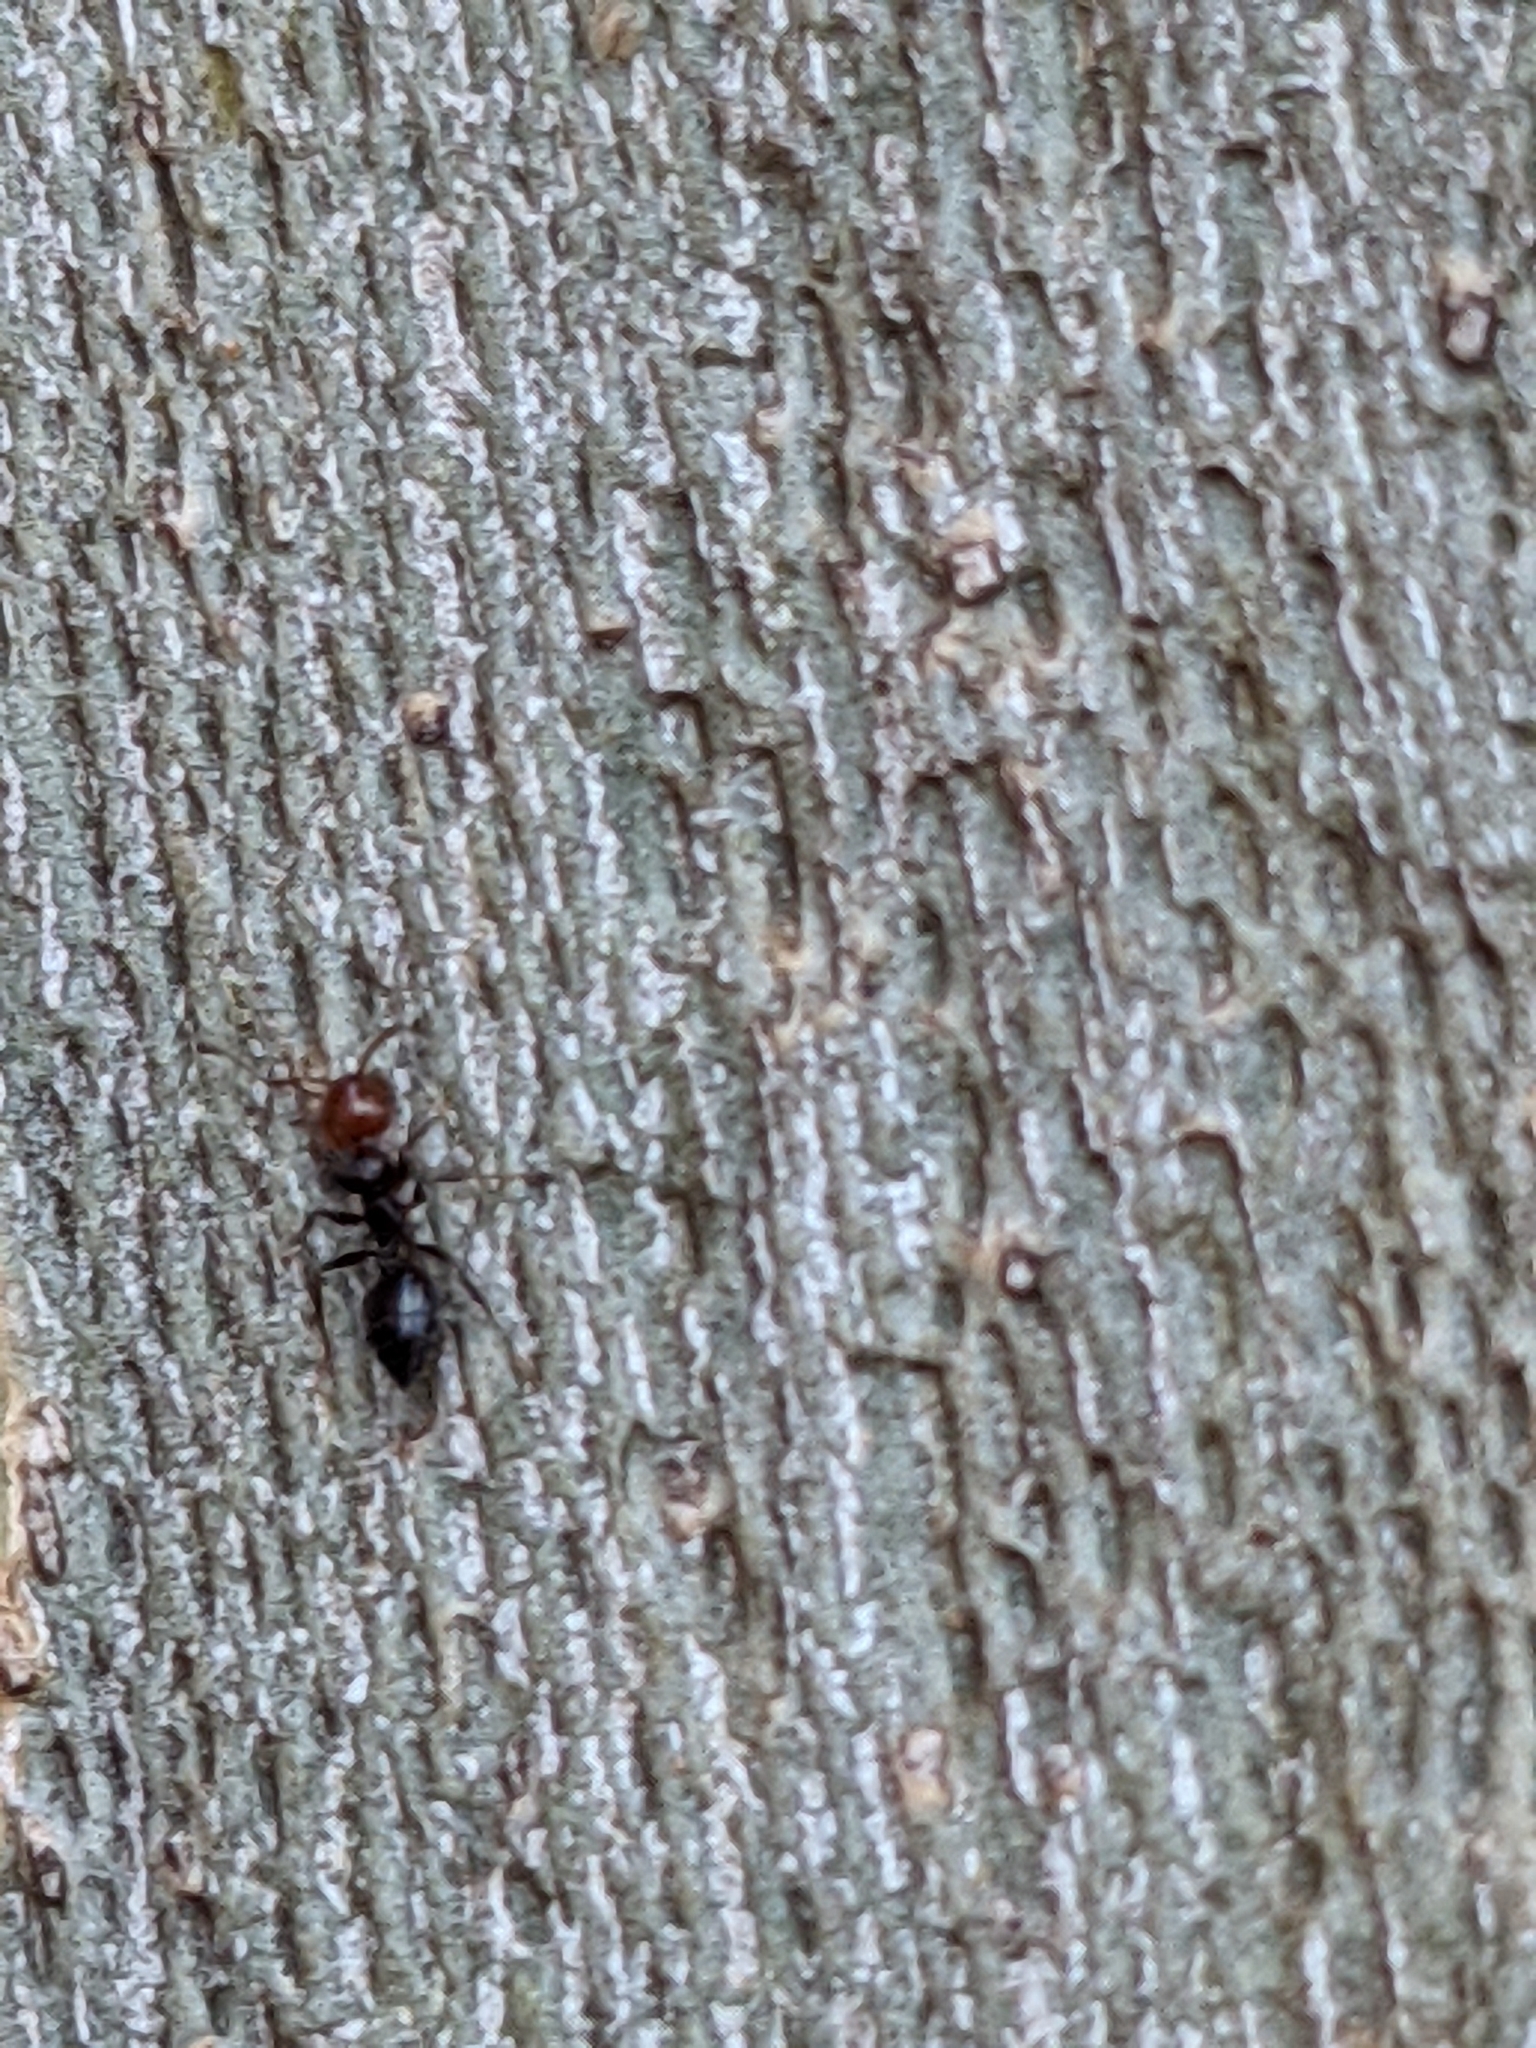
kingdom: Animalia
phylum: Arthropoda
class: Insecta
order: Hymenoptera
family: Formicidae
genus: Crematogaster
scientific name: Crematogaster scutellaris
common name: Fourmi du liège
